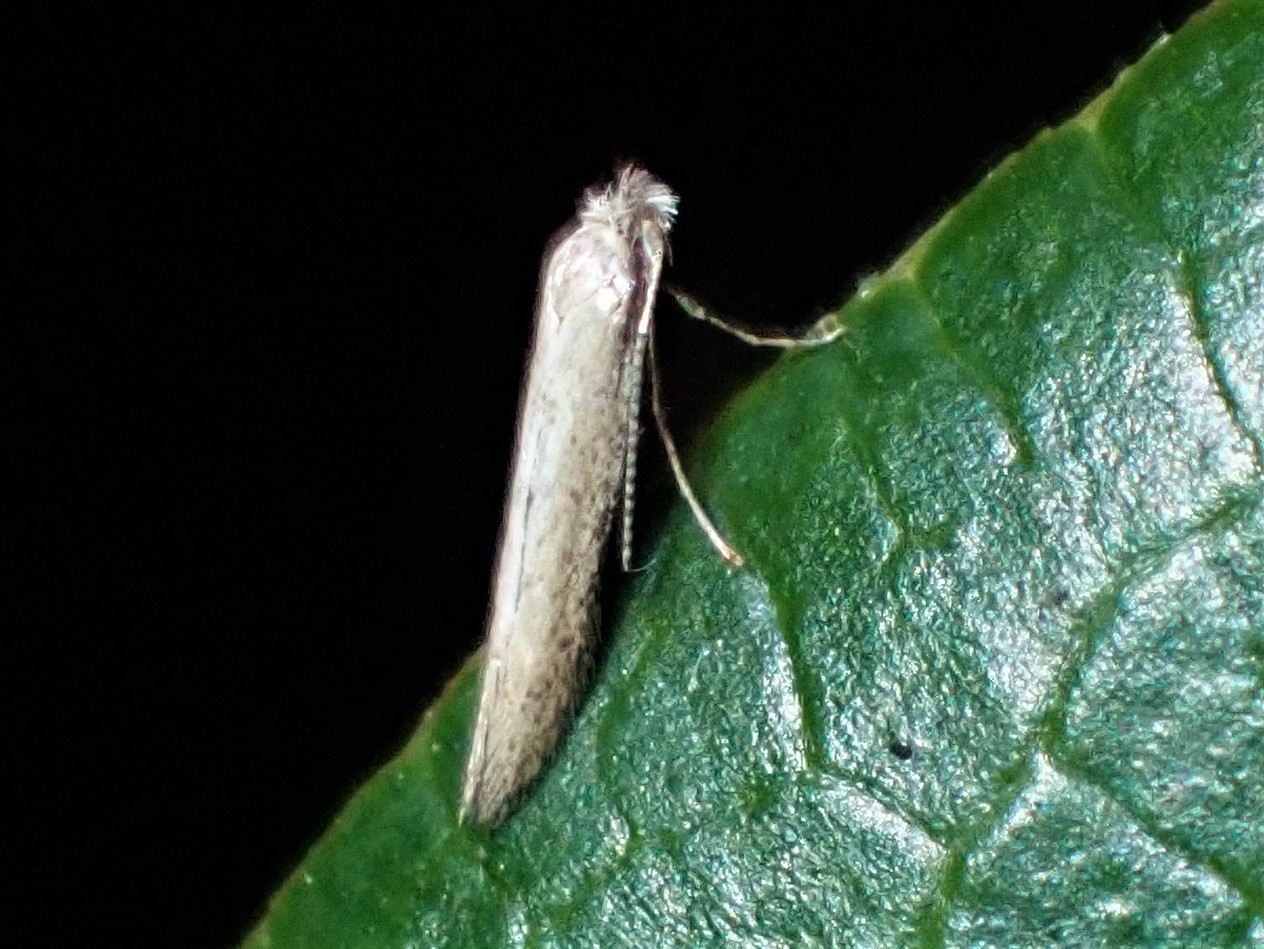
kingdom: Animalia
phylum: Arthropoda
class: Insecta
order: Lepidoptera
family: Bedelliidae
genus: Bedellia
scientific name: Bedellia
